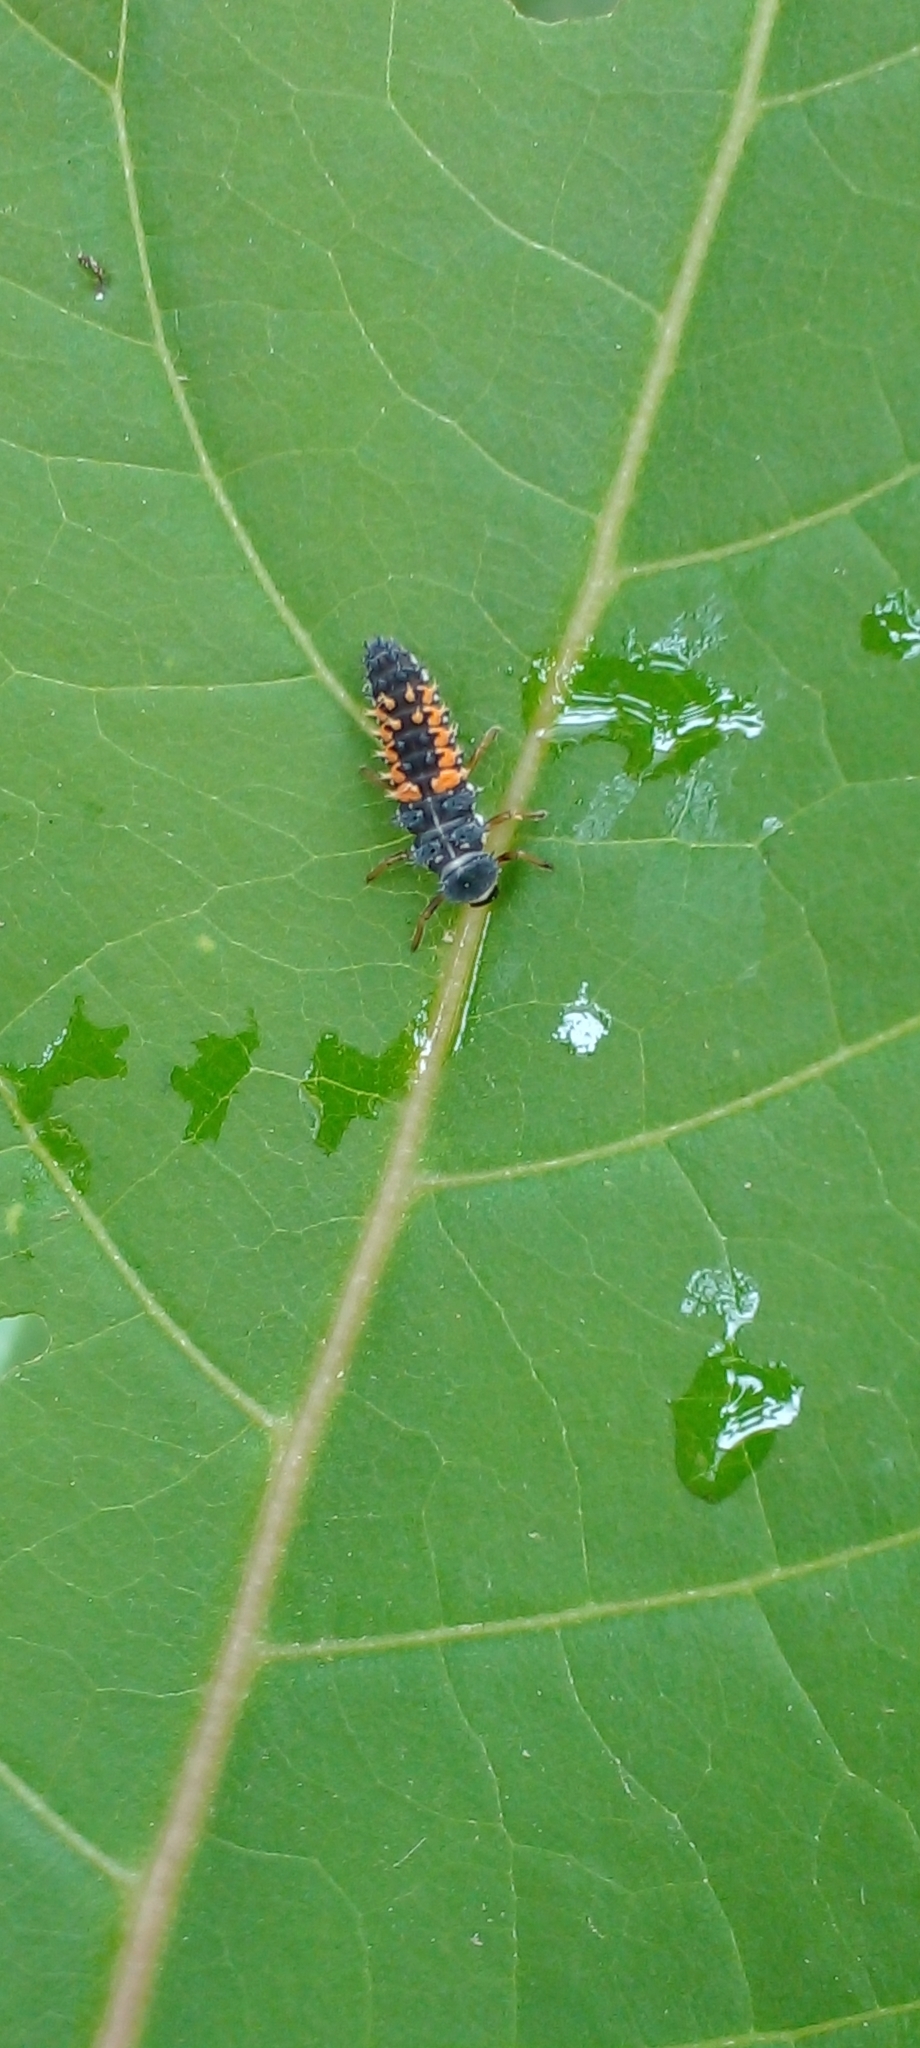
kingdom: Animalia
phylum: Arthropoda
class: Insecta
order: Coleoptera
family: Coccinellidae
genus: Harmonia
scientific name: Harmonia axyridis
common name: Harlequin ladybird
